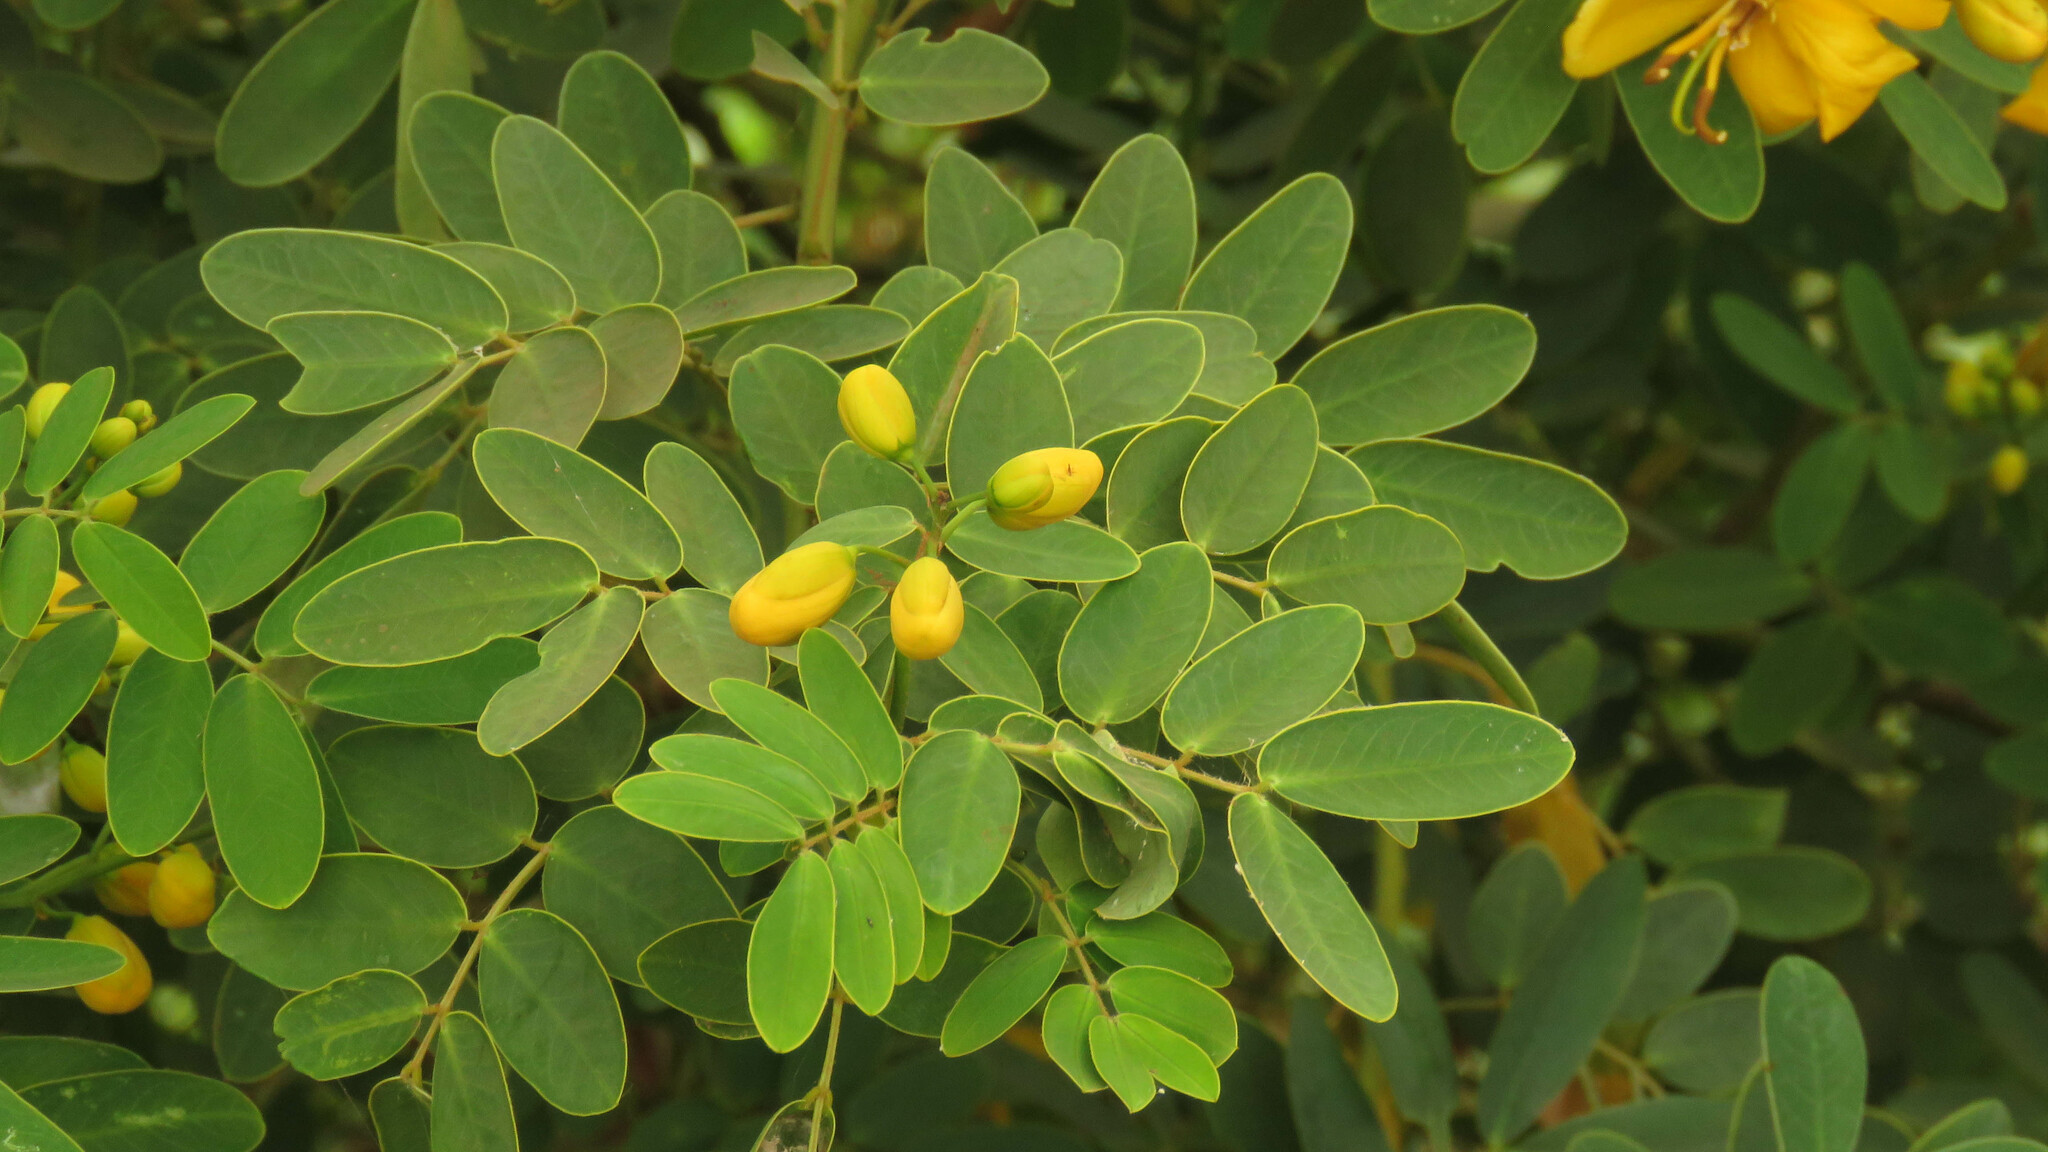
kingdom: Plantae
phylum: Tracheophyta
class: Magnoliopsida
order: Fabales
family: Fabaceae
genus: Senna
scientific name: Senna pendula
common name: Easter cassia
